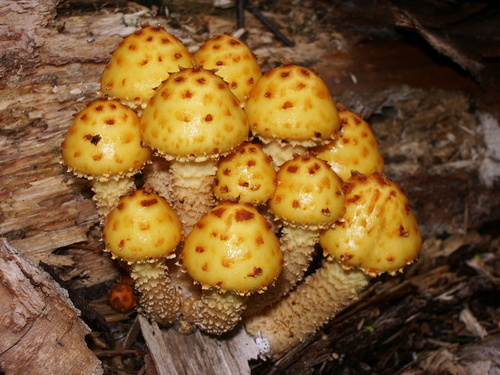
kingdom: Fungi
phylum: Basidiomycota
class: Agaricomycetes
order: Agaricales
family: Strophariaceae
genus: Pholiota
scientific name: Pholiota
